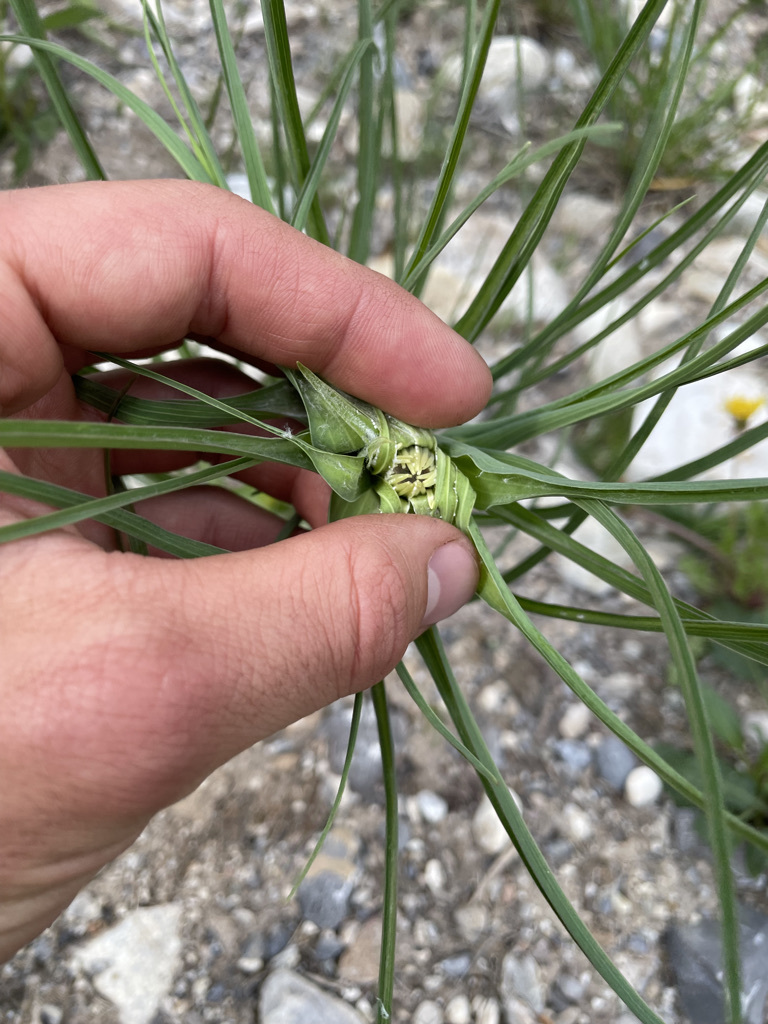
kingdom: Plantae
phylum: Tracheophyta
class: Magnoliopsida
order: Asterales
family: Asteraceae
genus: Tragopogon
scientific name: Tragopogon dubius
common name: Yellow salsify
